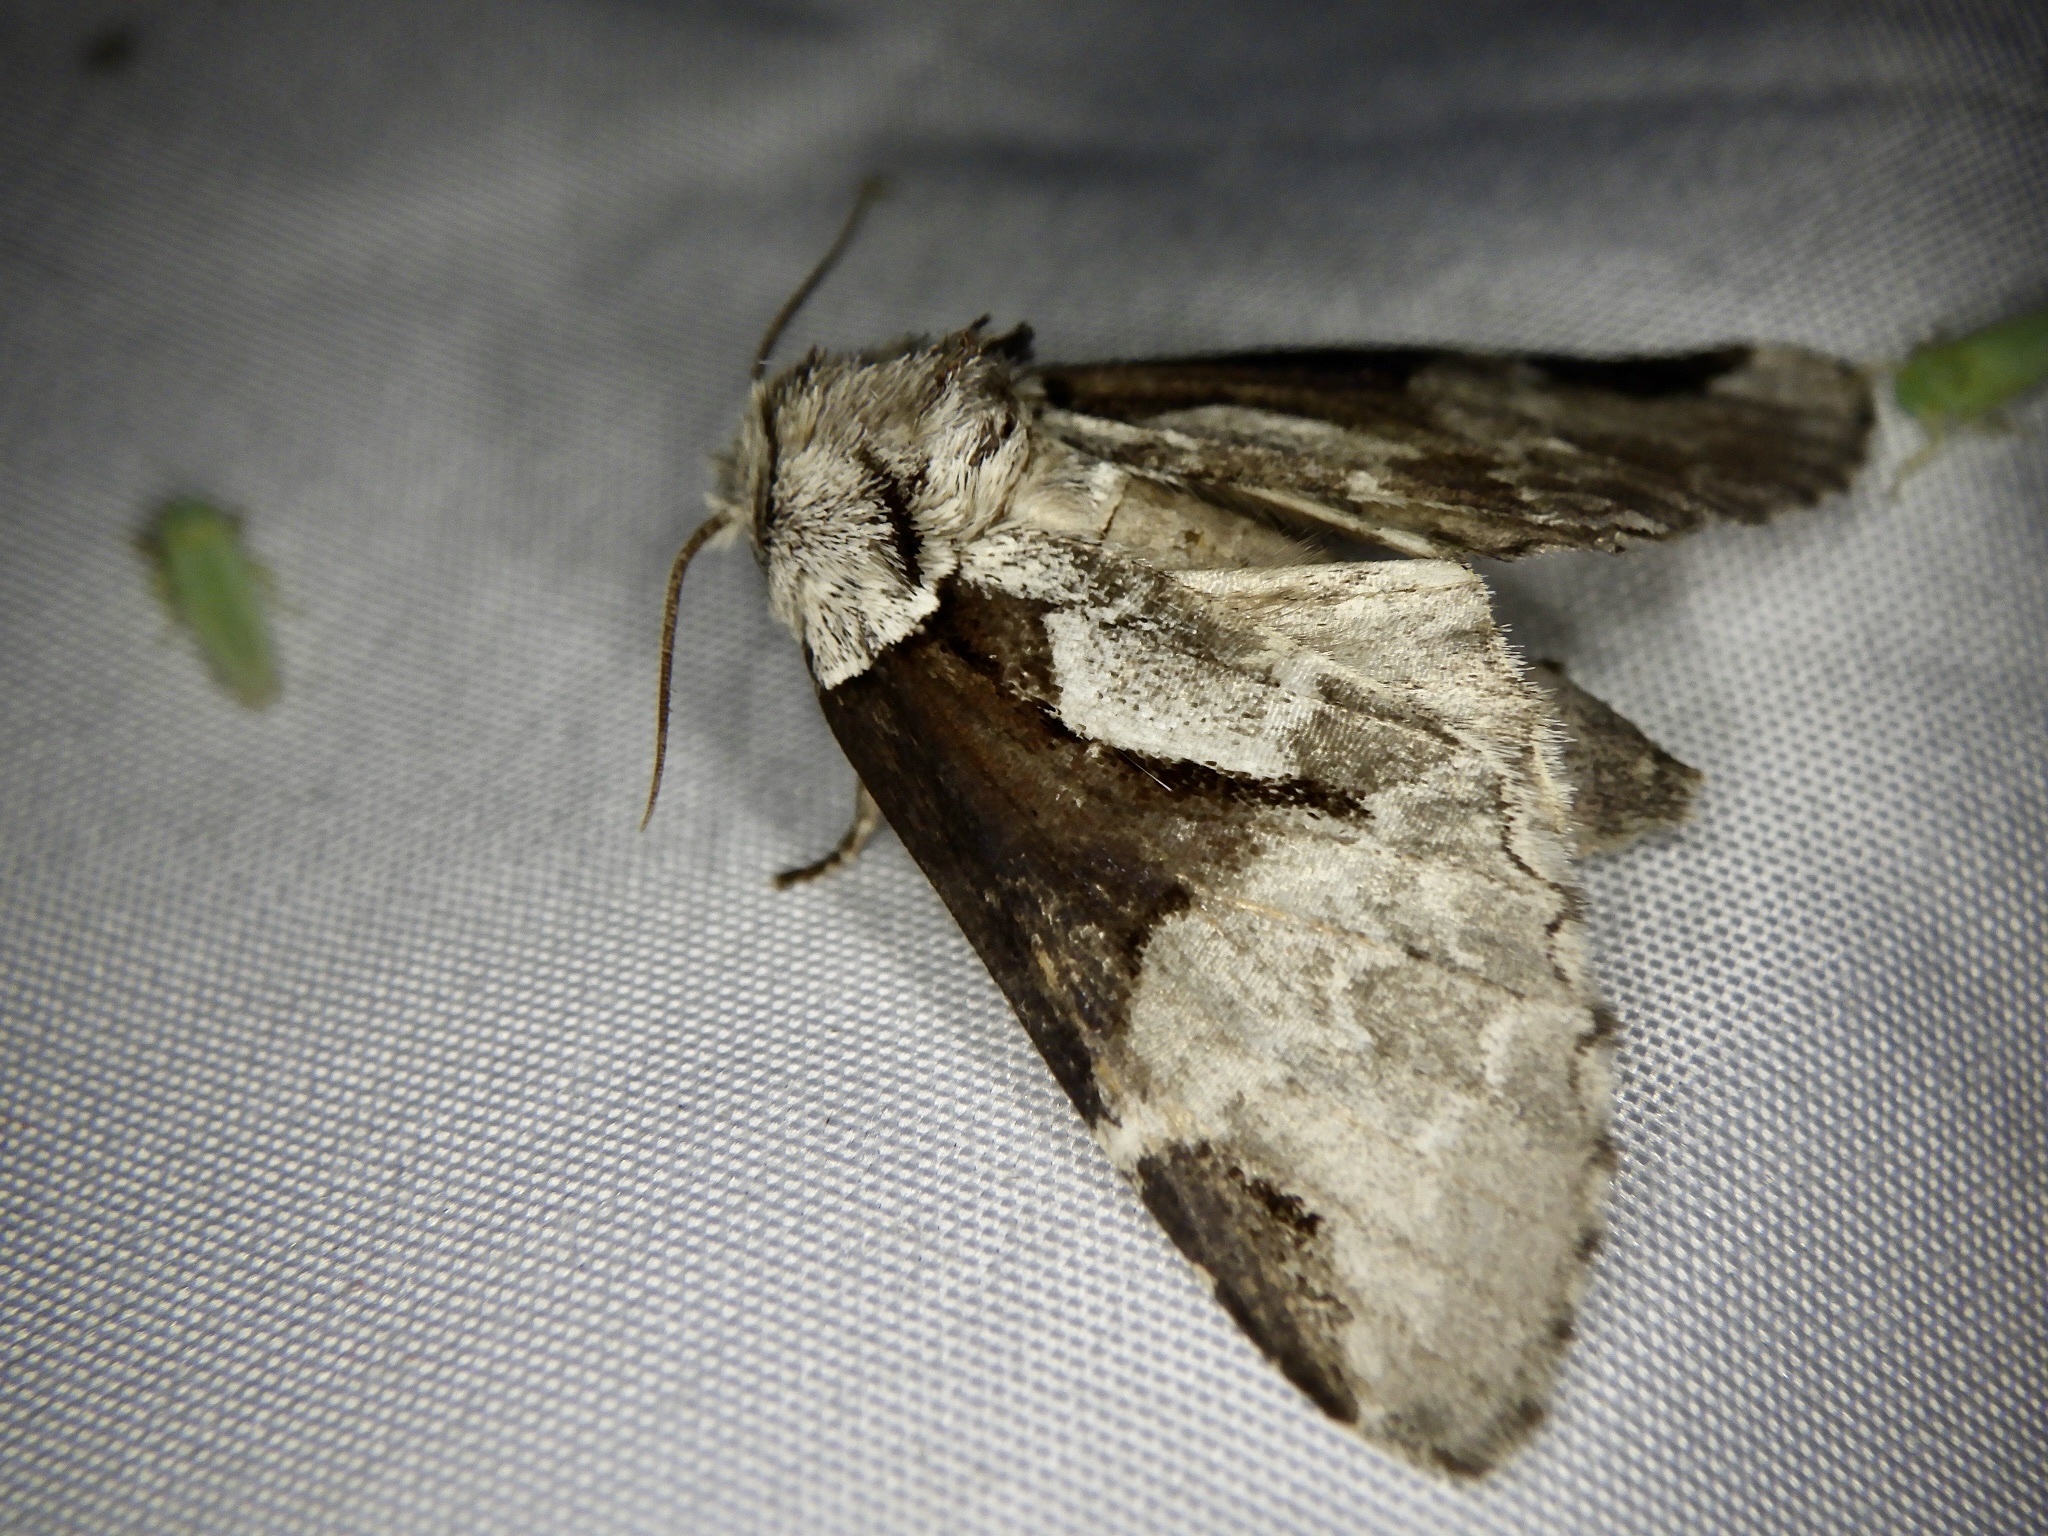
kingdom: Animalia
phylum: Arthropoda
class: Insecta
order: Lepidoptera
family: Notodontidae
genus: Wilemanus
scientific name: Wilemanus bidentatus
